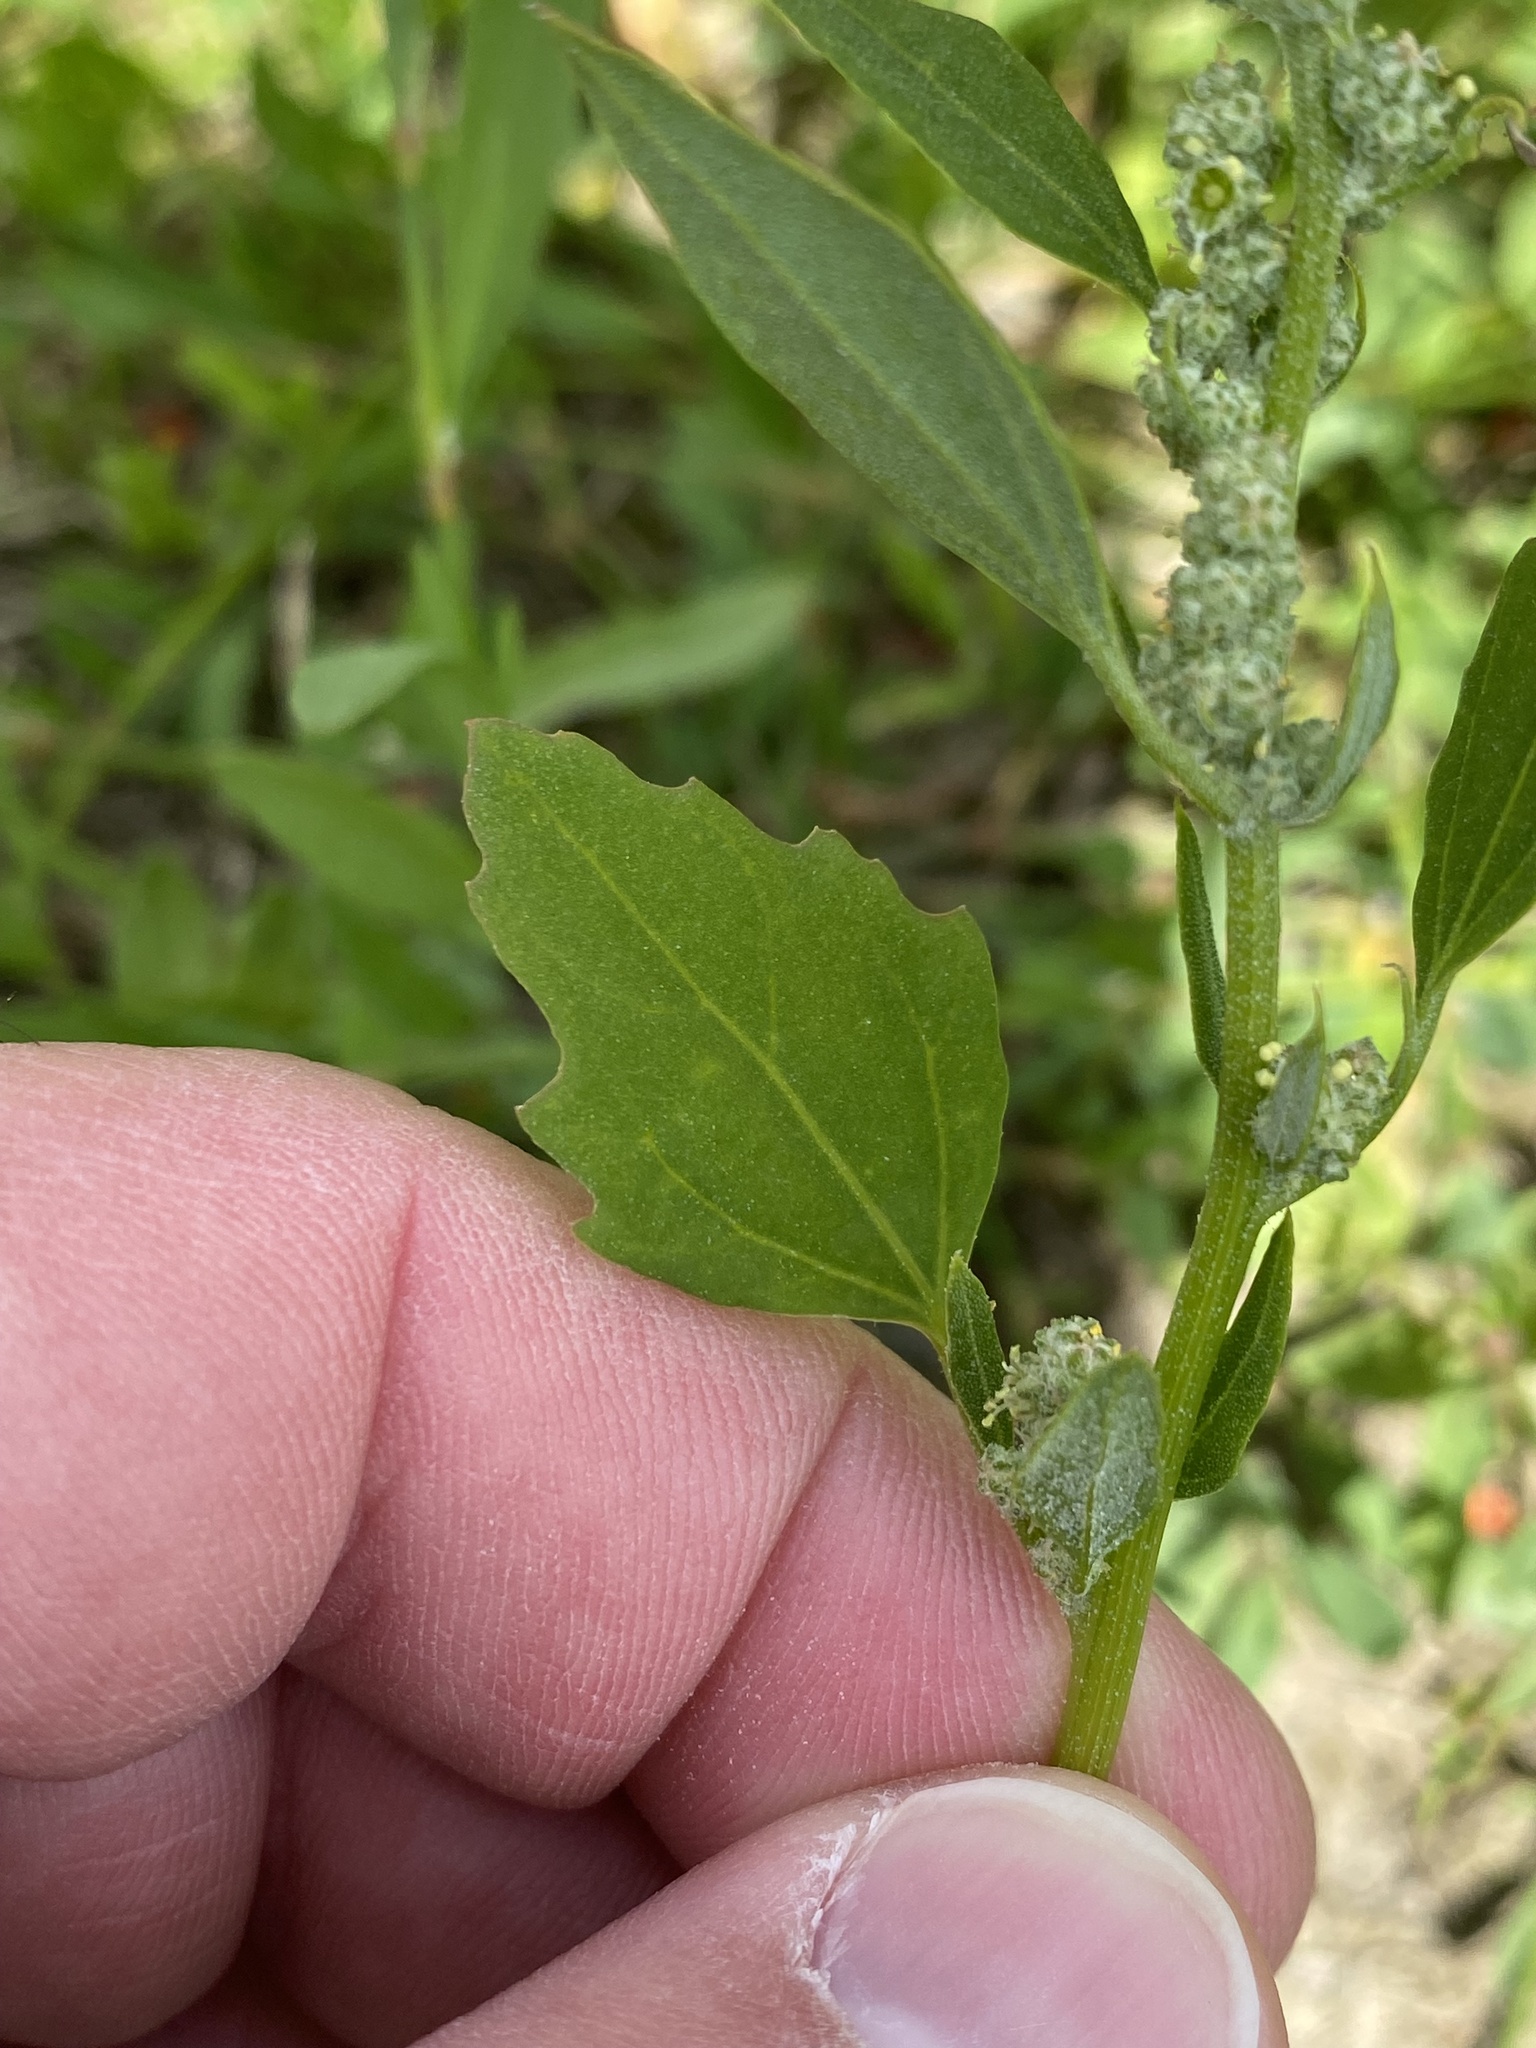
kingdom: Plantae
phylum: Tracheophyta
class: Magnoliopsida
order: Caryophyllales
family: Amaranthaceae
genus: Chenopodium
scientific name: Chenopodium album
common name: Fat-hen
